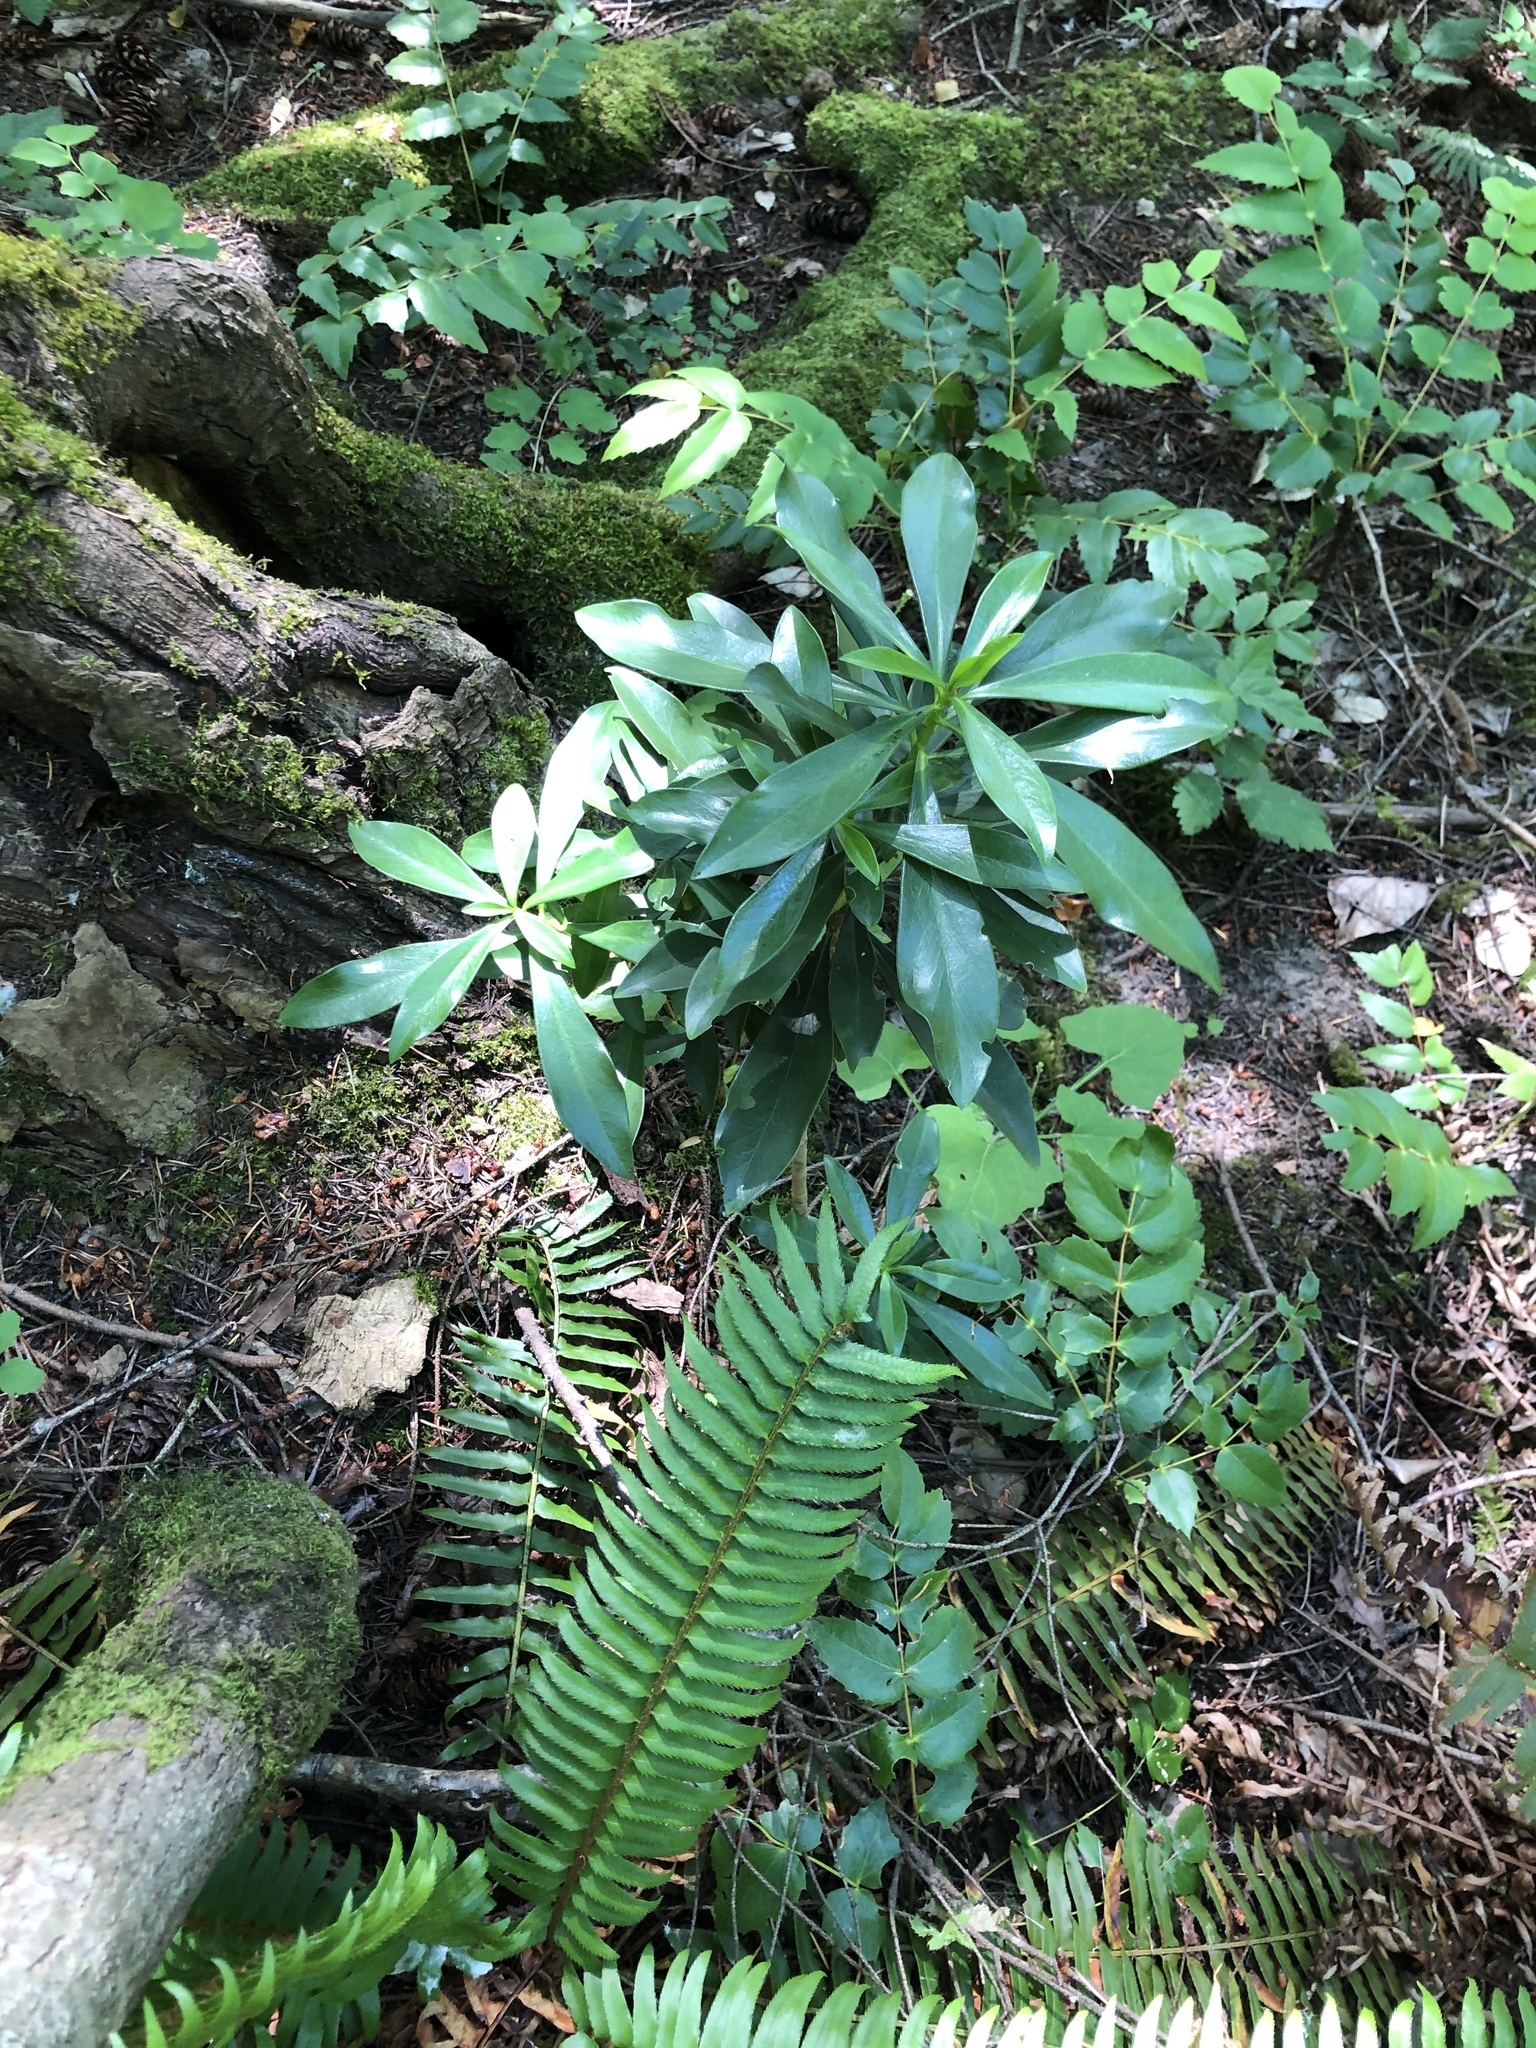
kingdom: Plantae
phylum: Tracheophyta
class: Magnoliopsida
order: Malvales
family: Thymelaeaceae
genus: Daphne
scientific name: Daphne laureola
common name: Spurge-laurel
